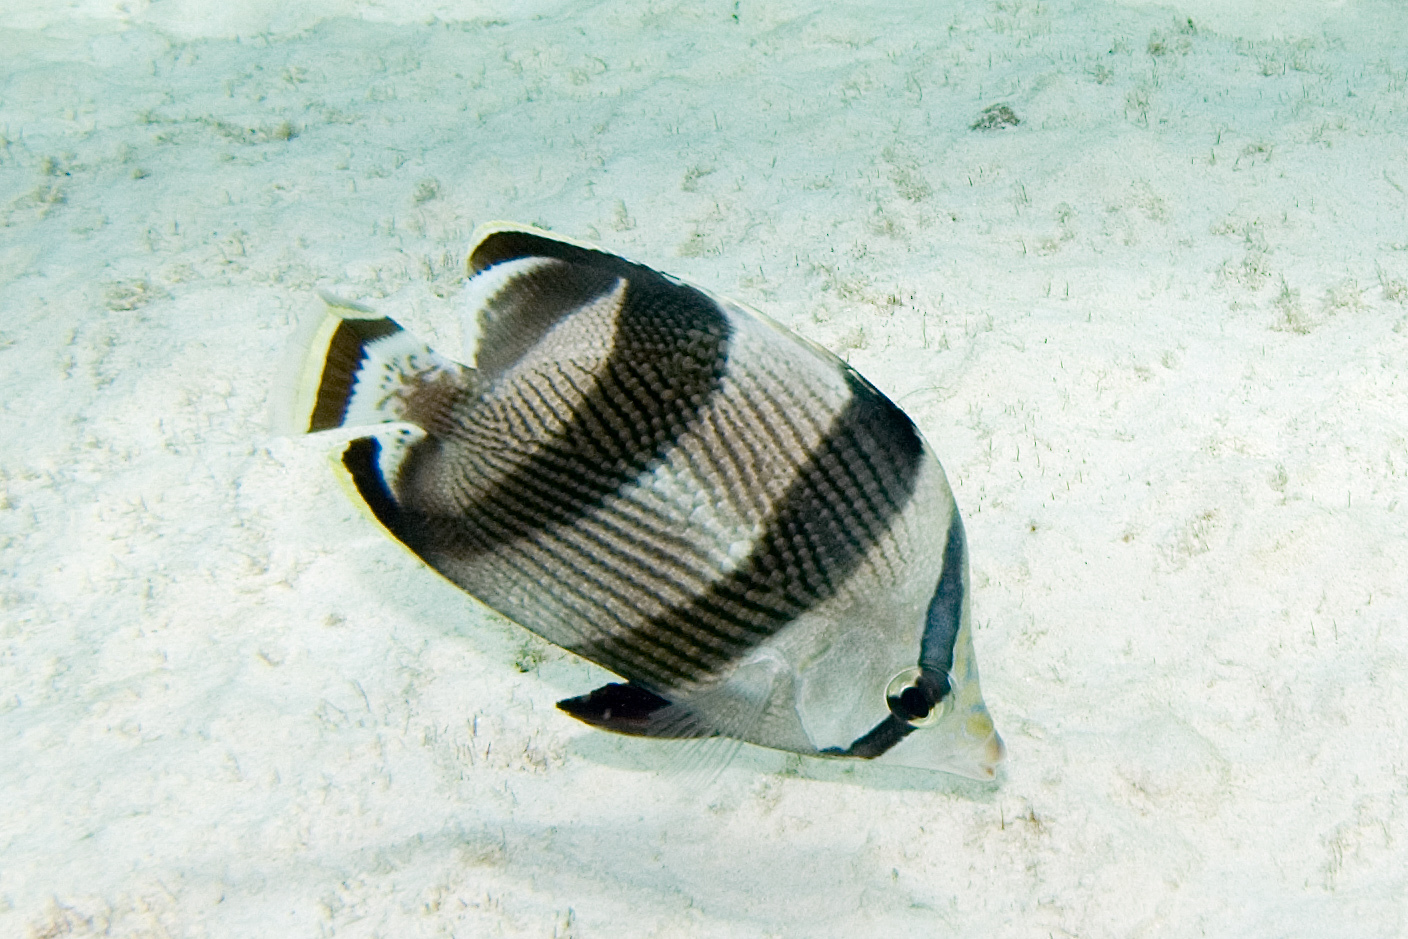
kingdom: Animalia
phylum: Chordata
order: Perciformes
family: Chaetodontidae
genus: Chaetodon
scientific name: Chaetodon striatus
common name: Banded butterflyfish
